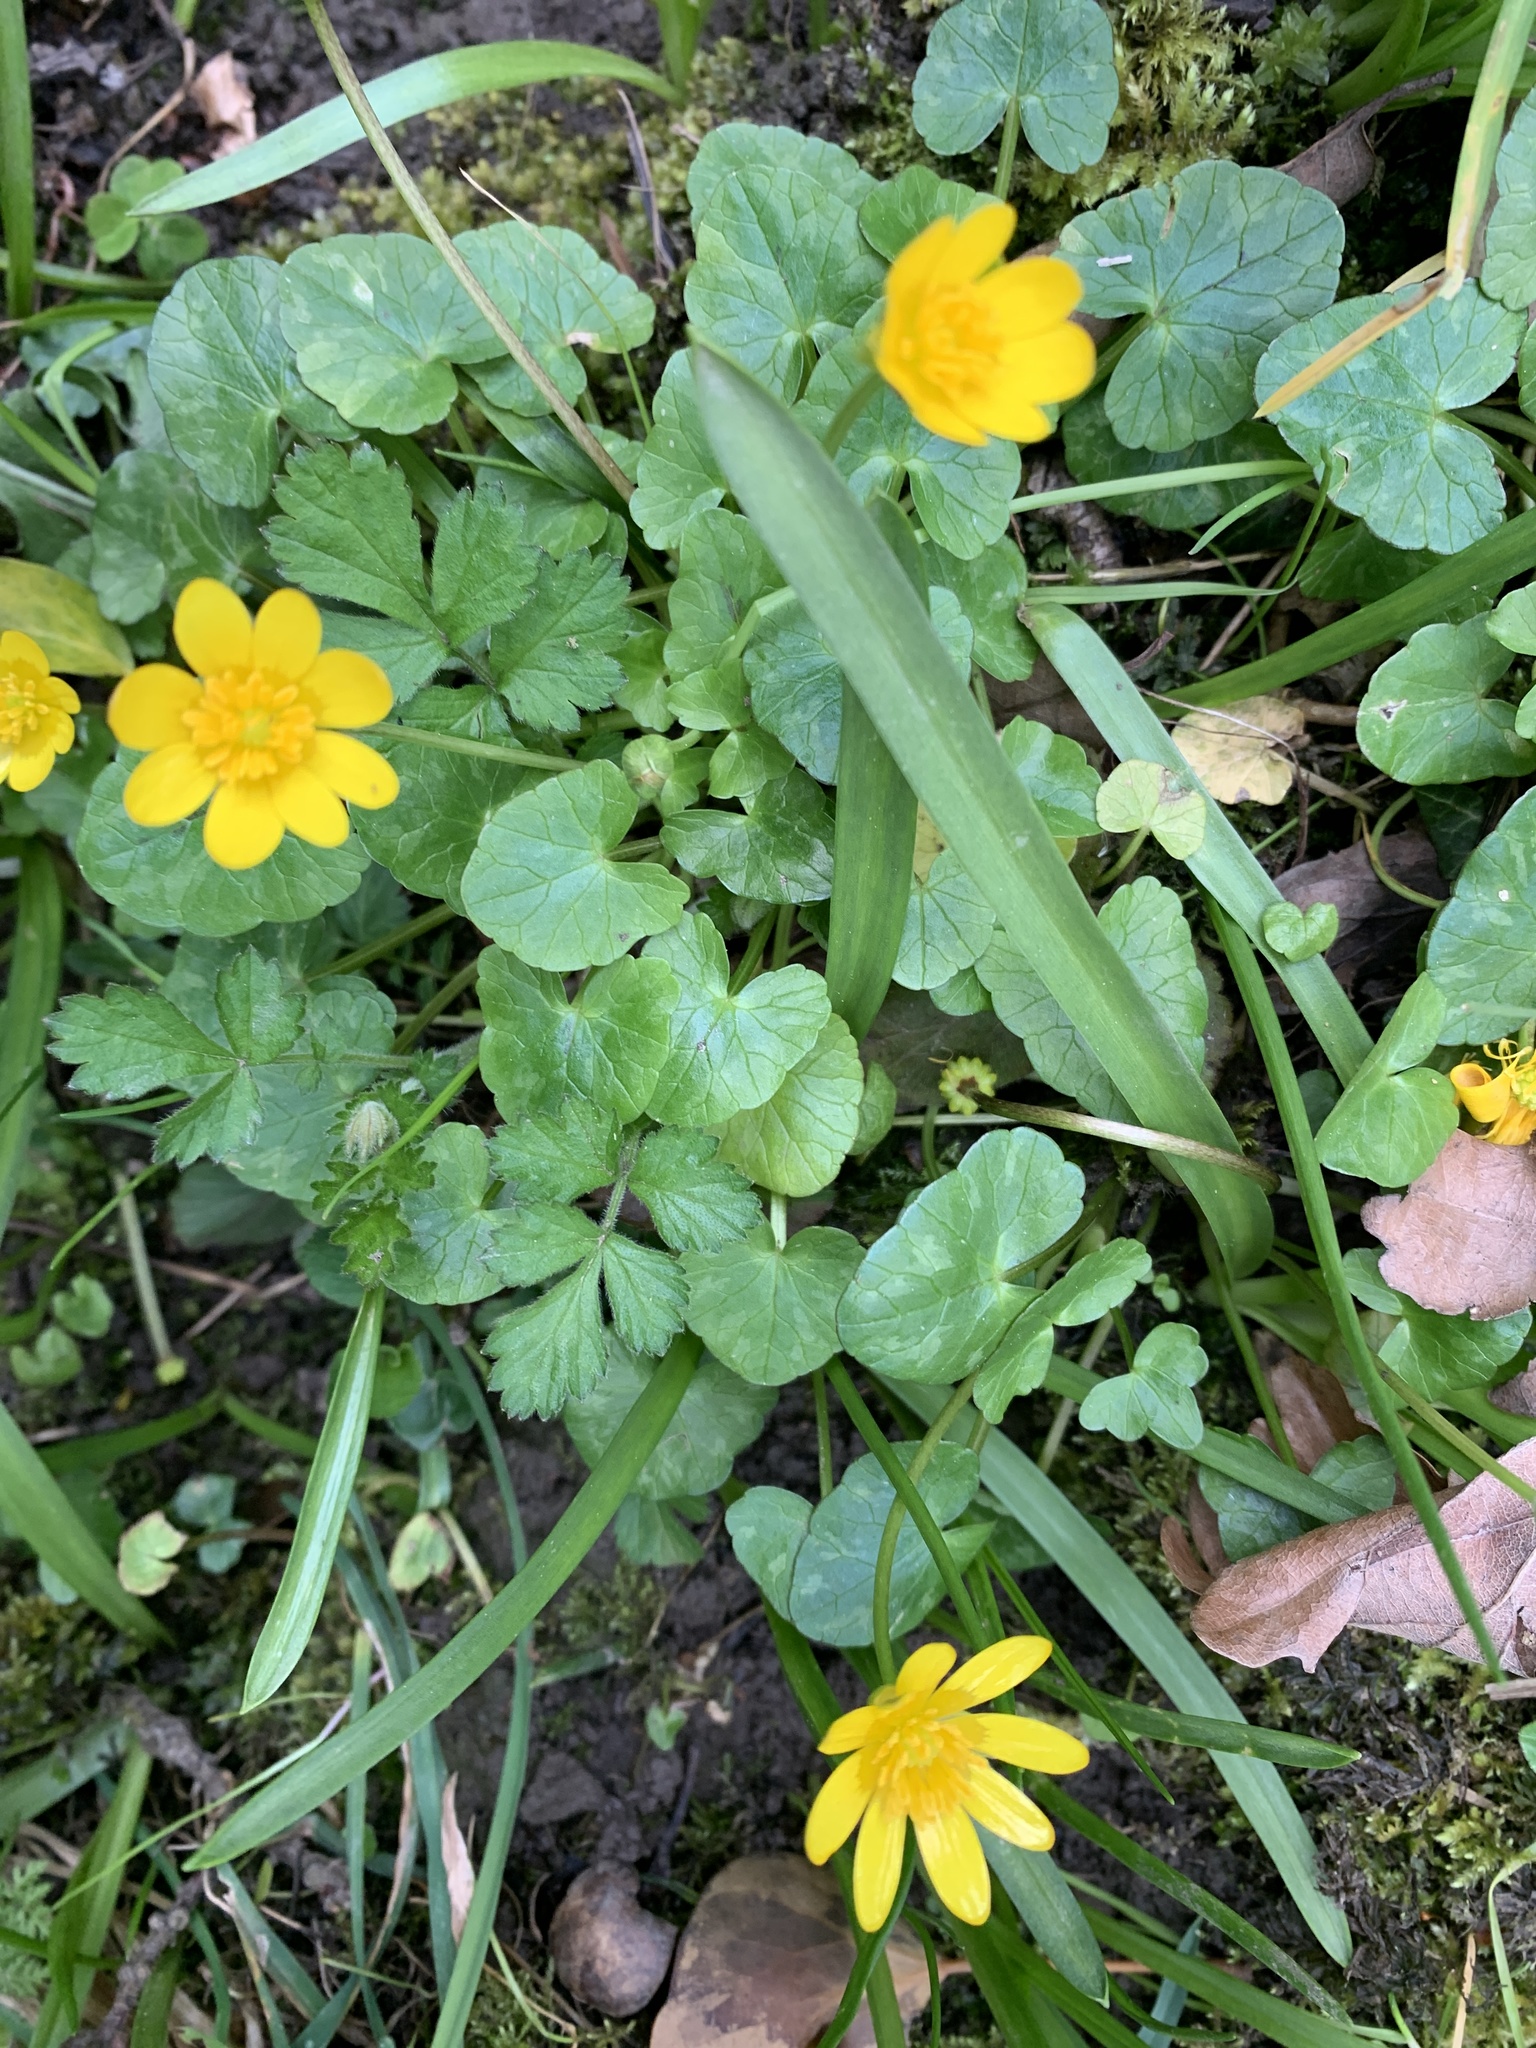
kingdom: Plantae
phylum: Tracheophyta
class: Magnoliopsida
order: Ranunculales
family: Ranunculaceae
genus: Ficaria
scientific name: Ficaria verna
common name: Lesser celandine
